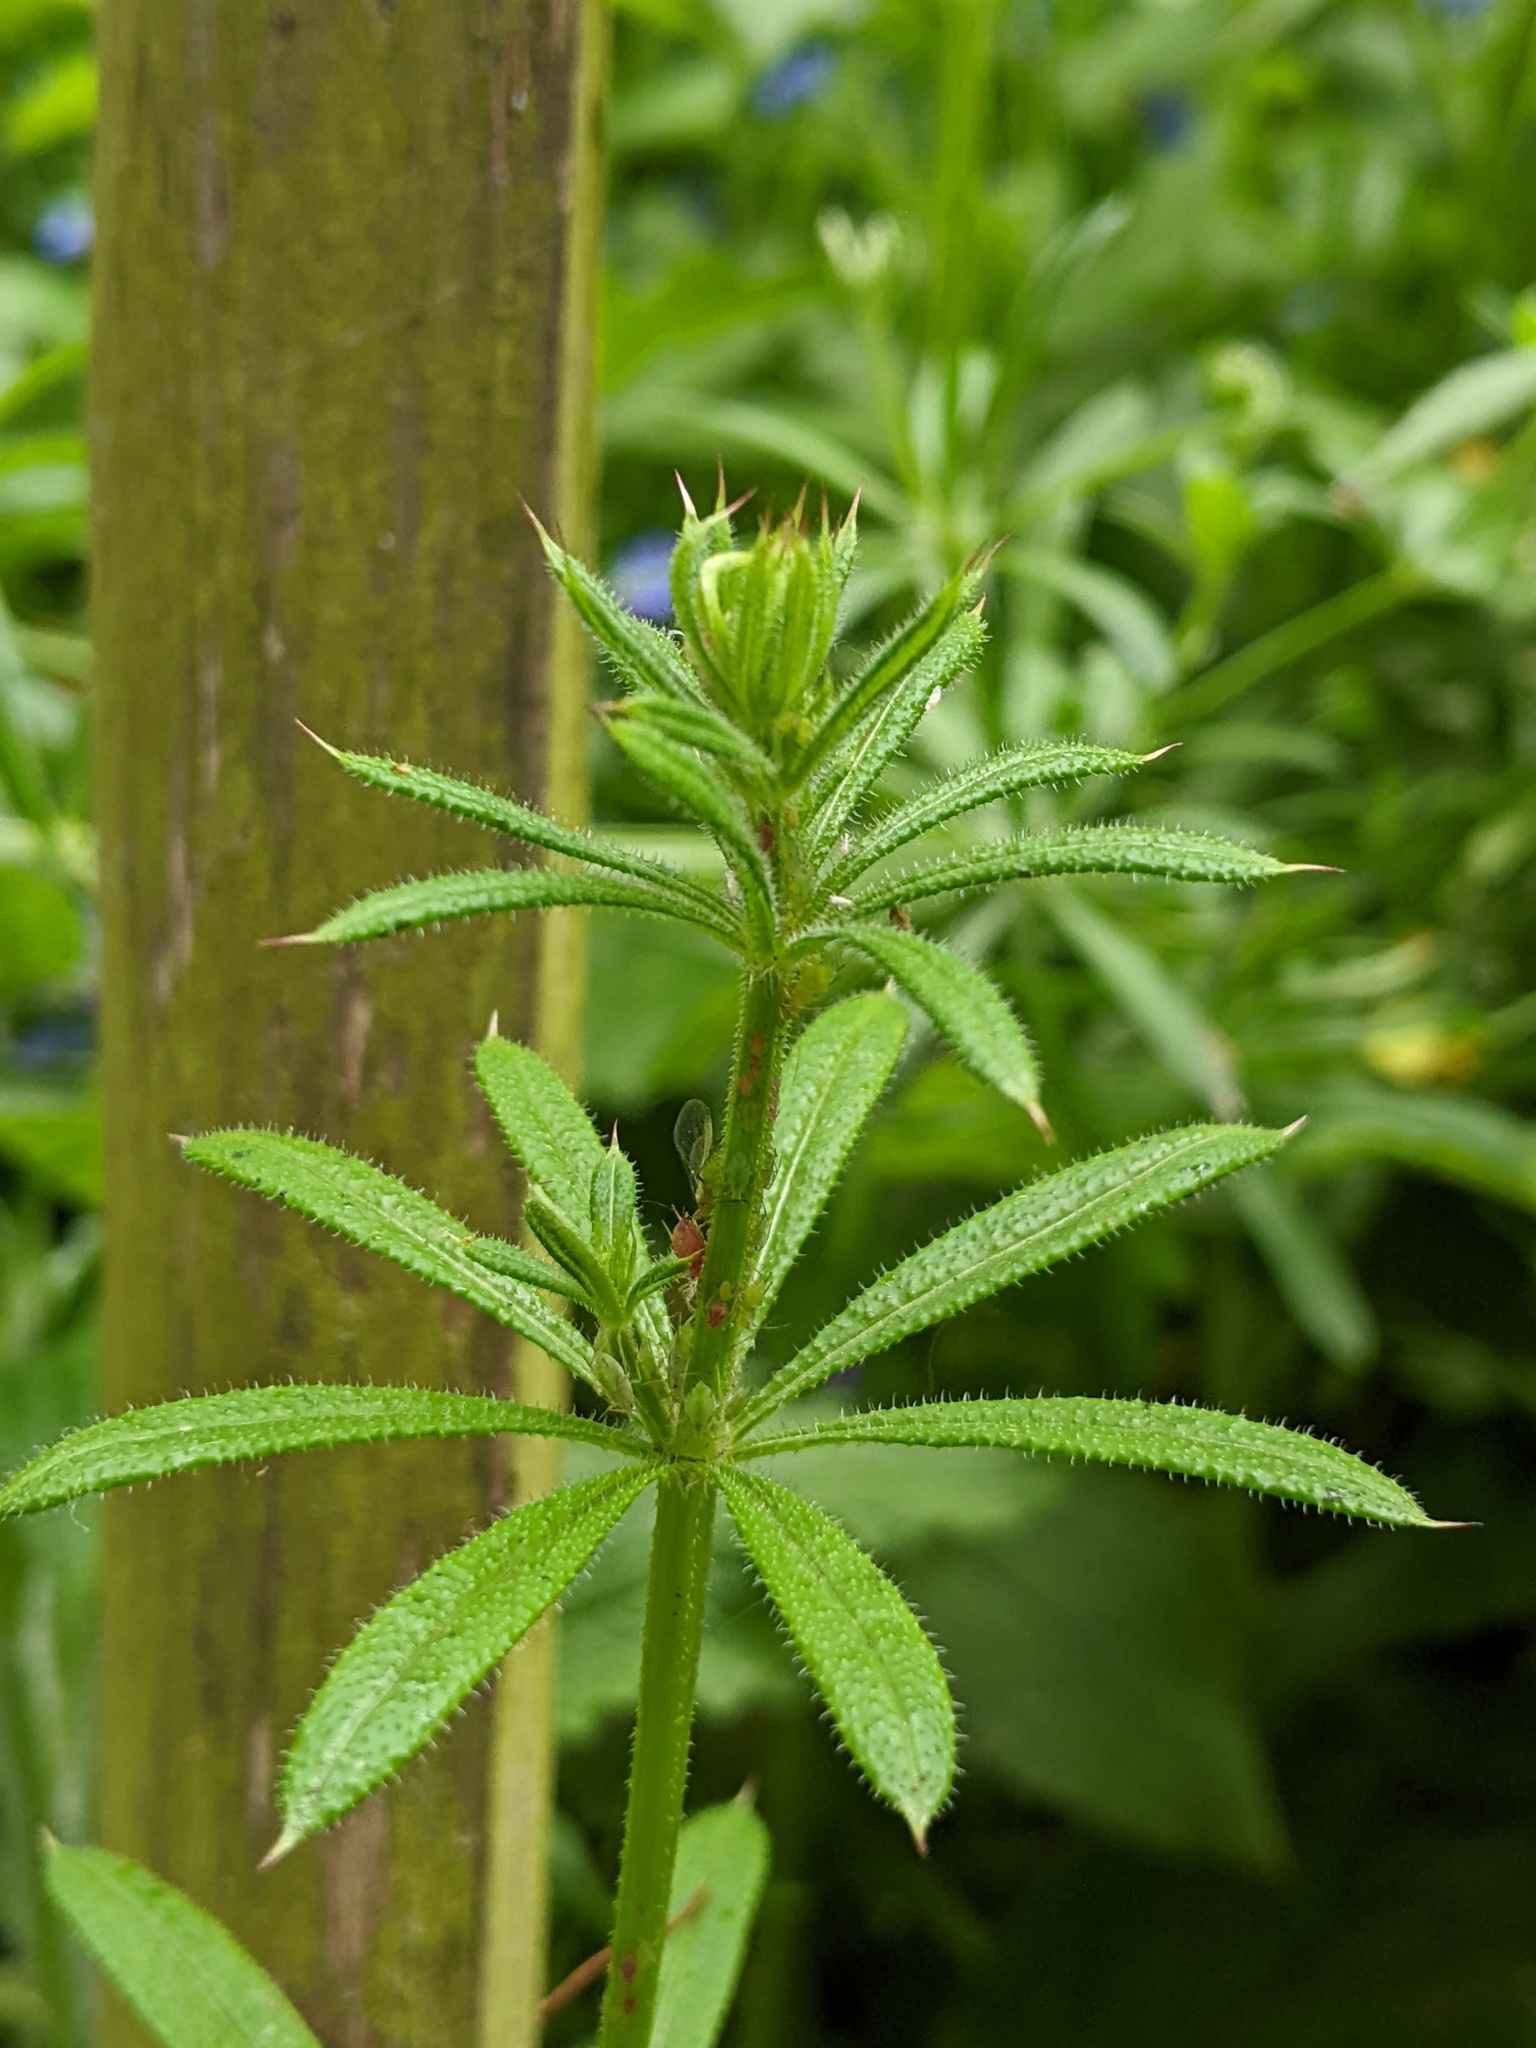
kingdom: Plantae
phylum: Tracheophyta
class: Magnoliopsida
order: Gentianales
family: Rubiaceae
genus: Galium
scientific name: Galium aparine
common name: Cleavers
